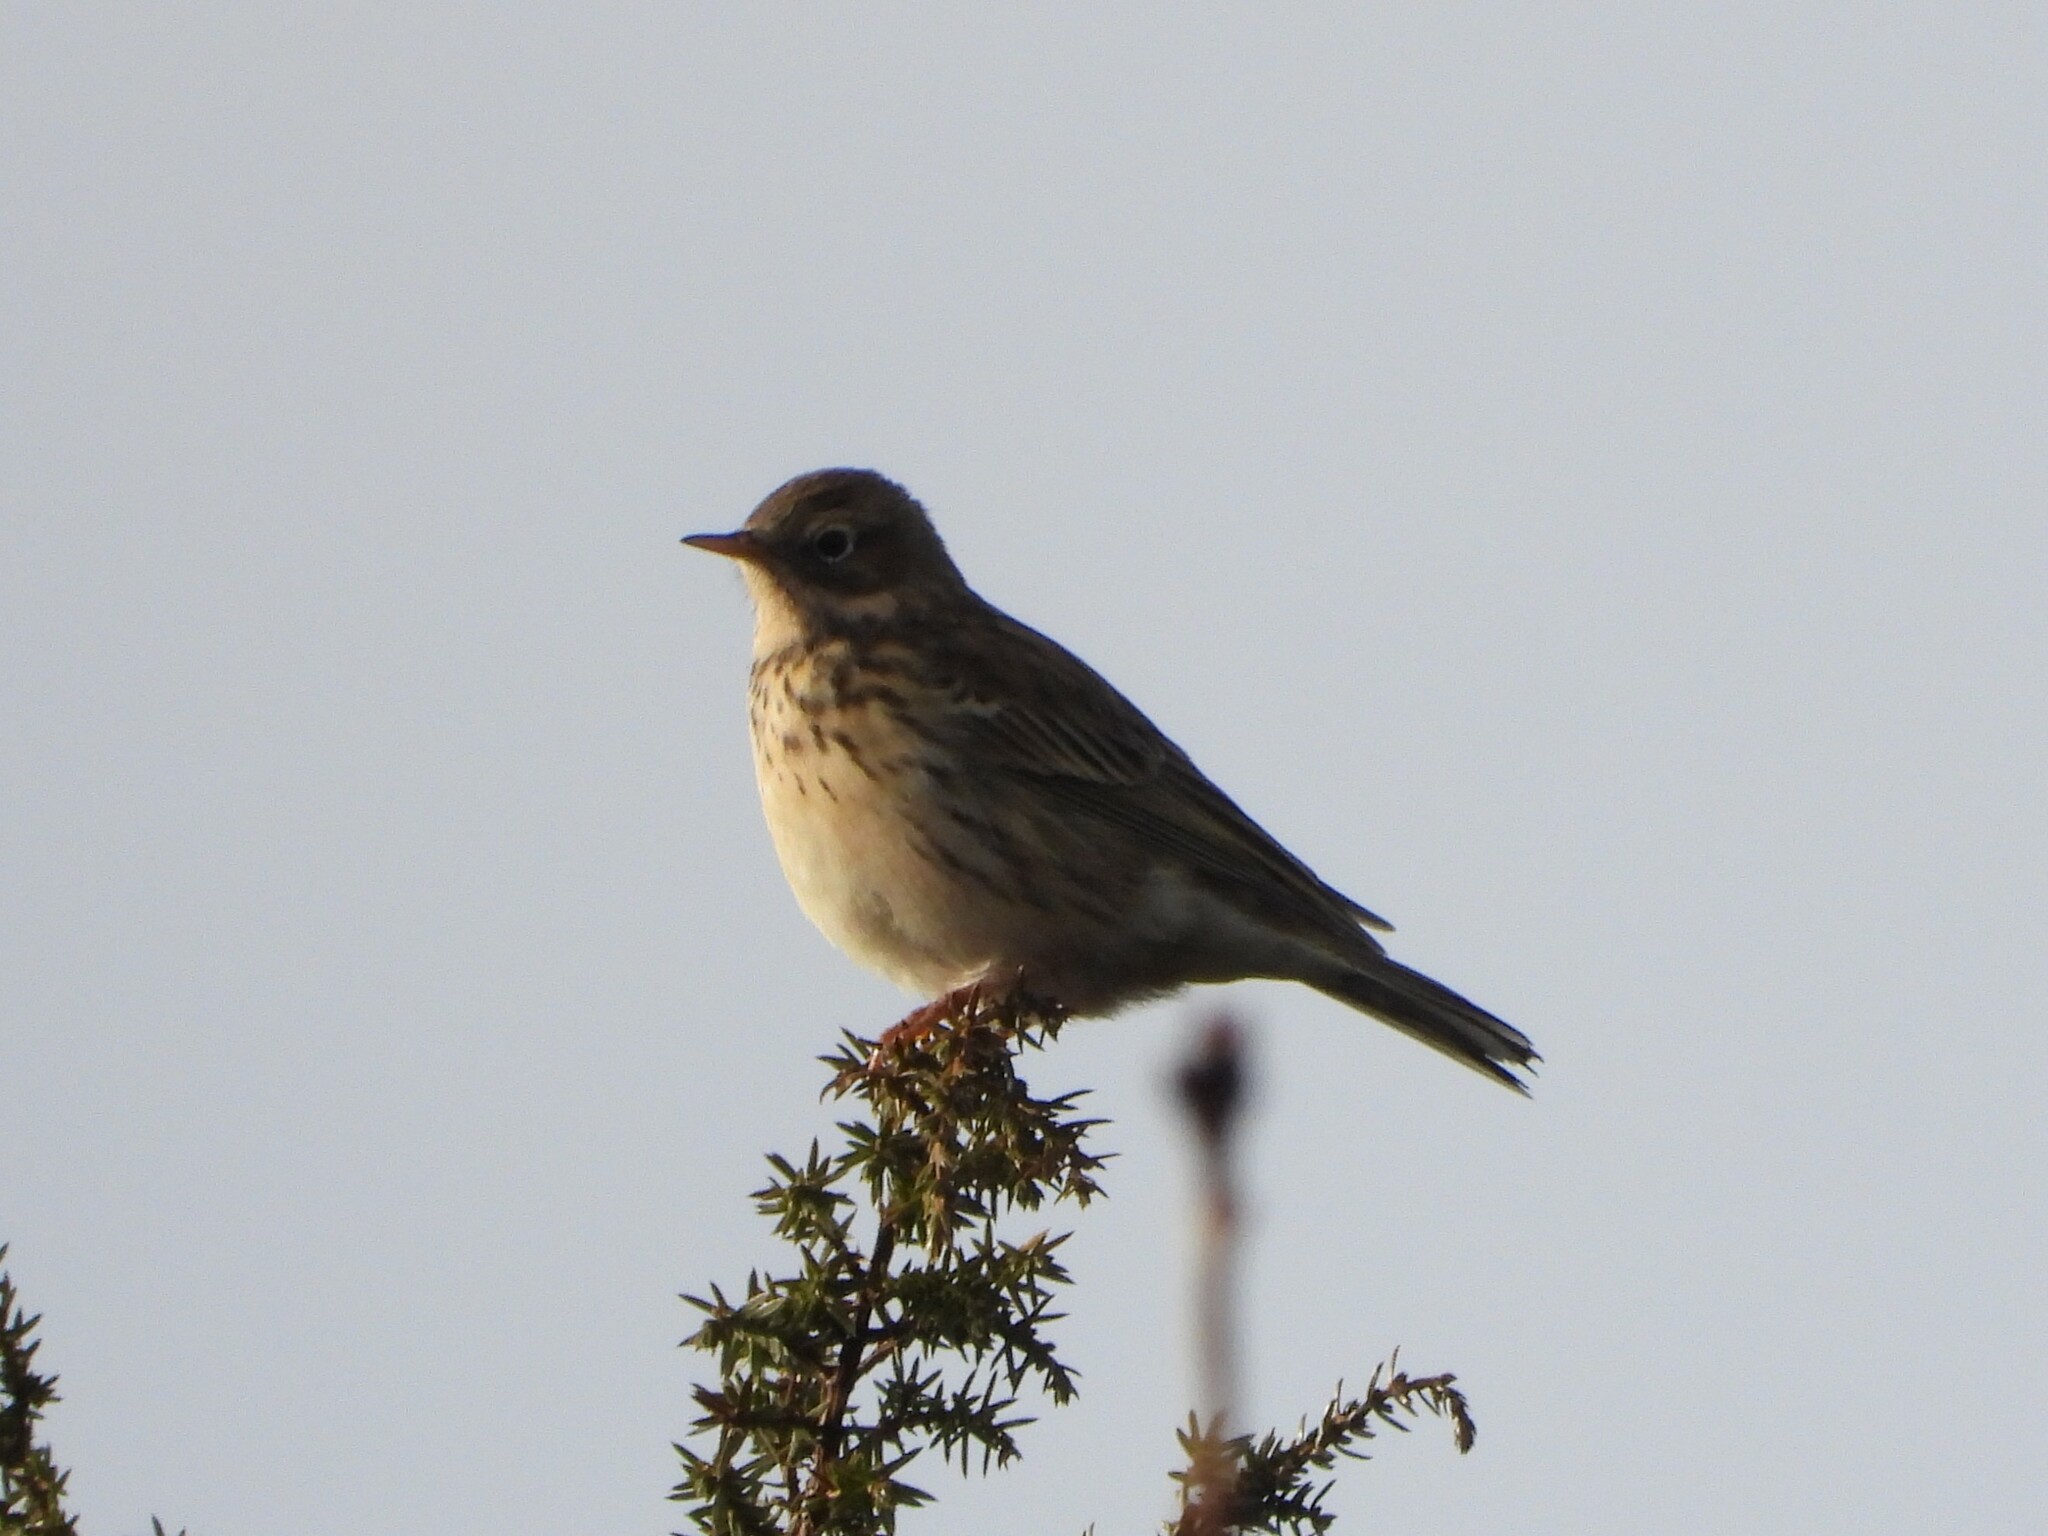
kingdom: Animalia
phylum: Chordata
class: Aves
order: Passeriformes
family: Motacillidae
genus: Anthus
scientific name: Anthus pratensis
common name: Meadow pipit
